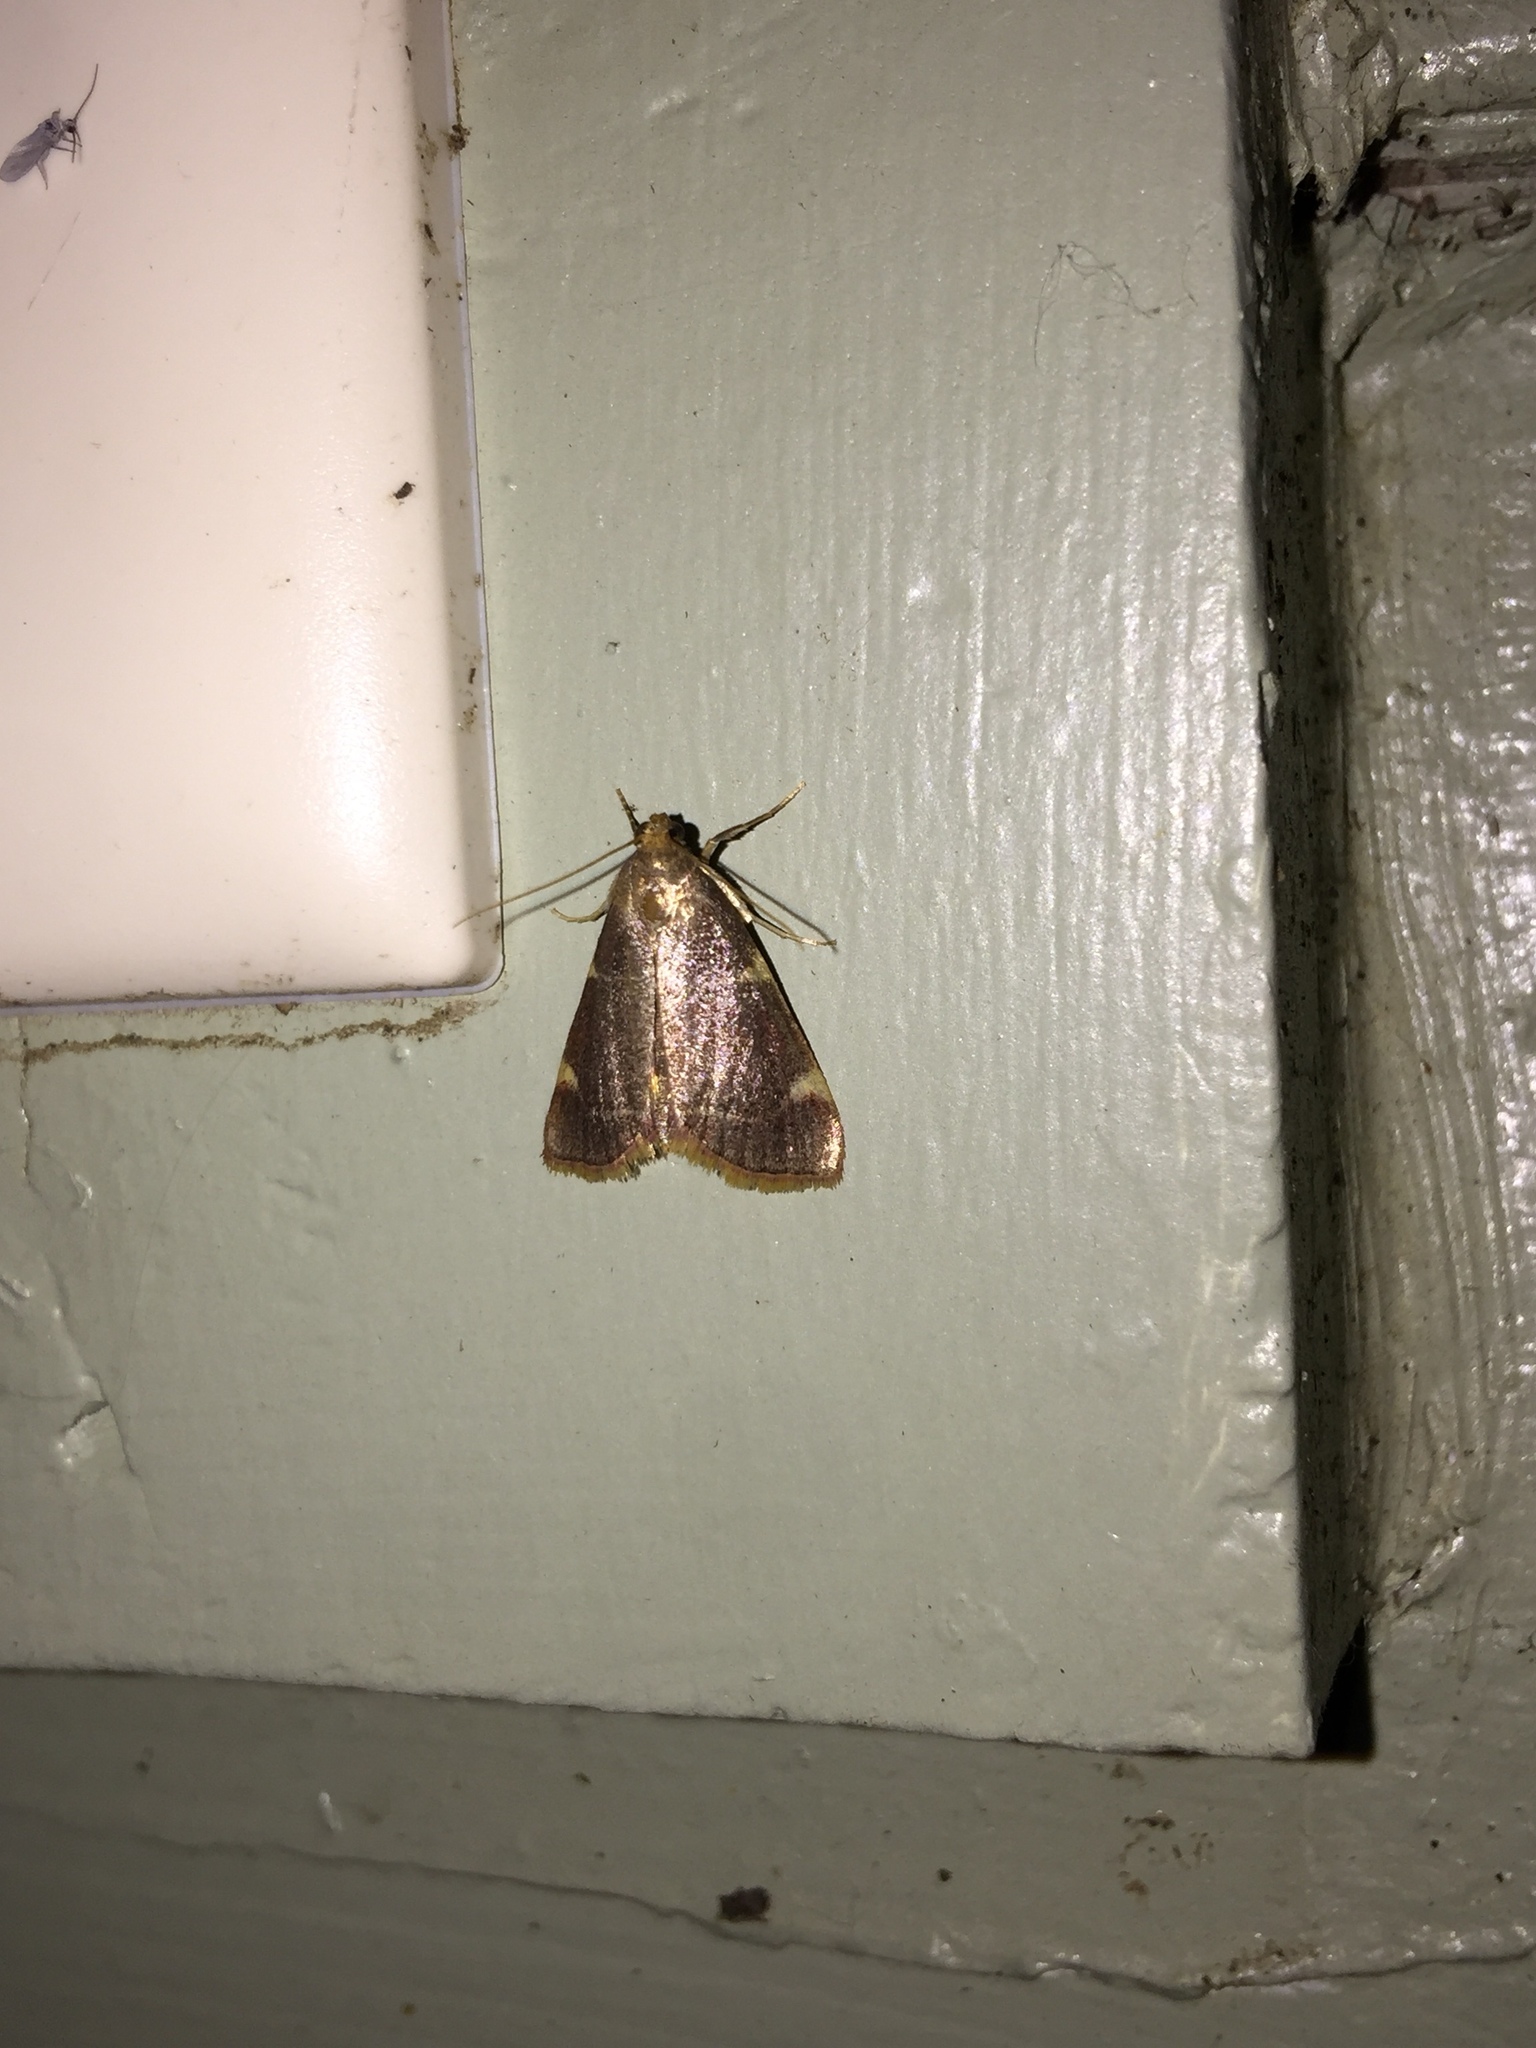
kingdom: Animalia
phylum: Arthropoda
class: Insecta
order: Lepidoptera
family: Pyralidae
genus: Hypsopygia
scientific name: Hypsopygia olinalis
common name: Yellow-fringed dolichomia moth
